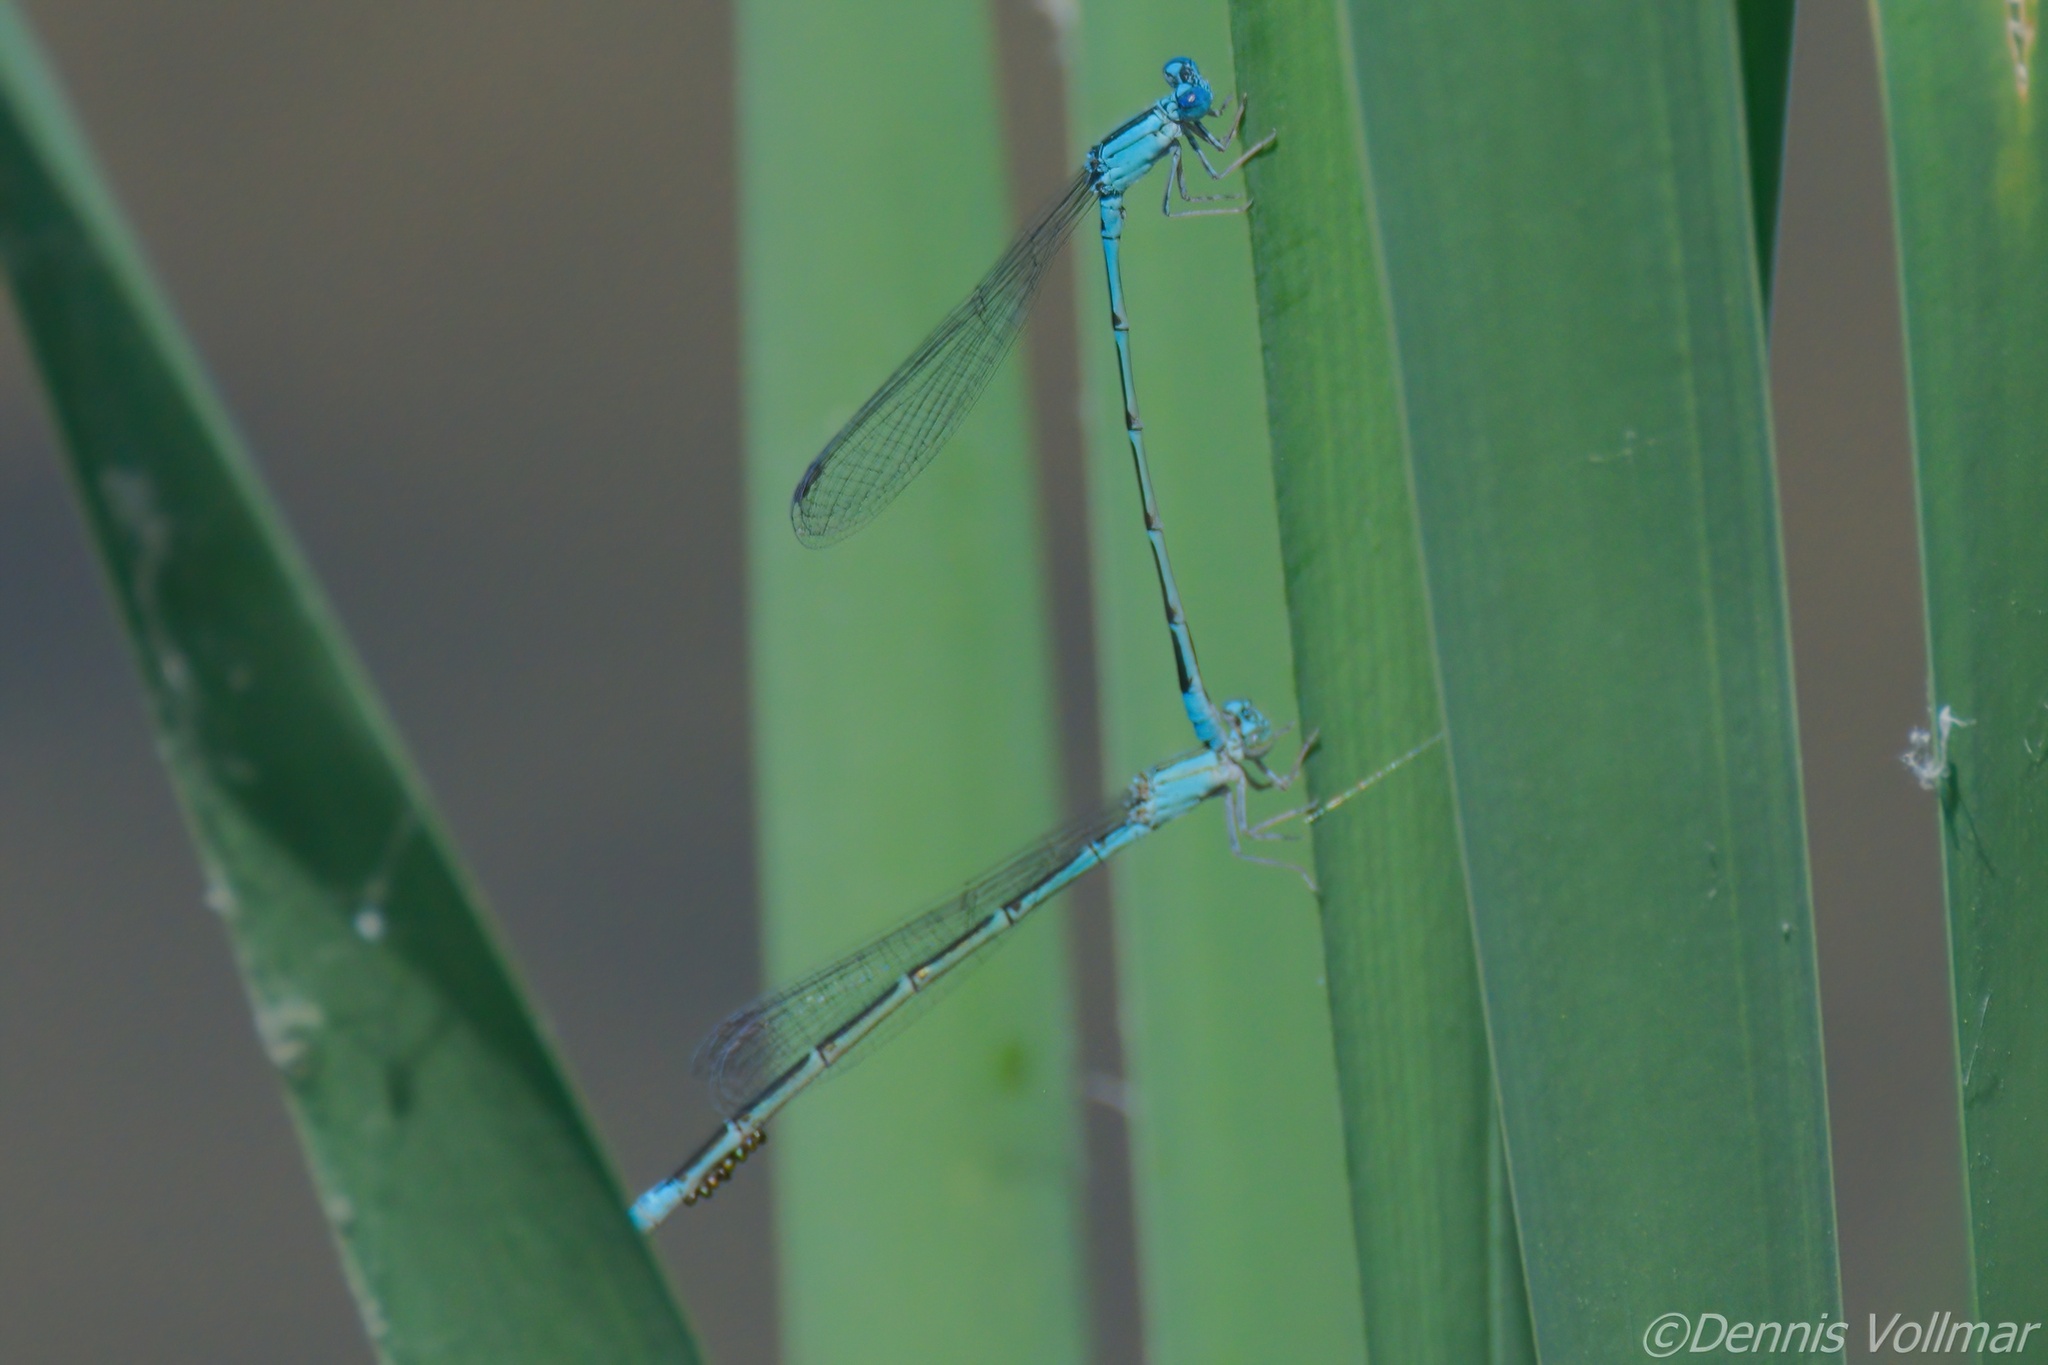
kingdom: Animalia
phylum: Arthropoda
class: Insecta
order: Odonata
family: Coenagrionidae
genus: Enallagma
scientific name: Enallagma traviatum
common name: Slender bluet
